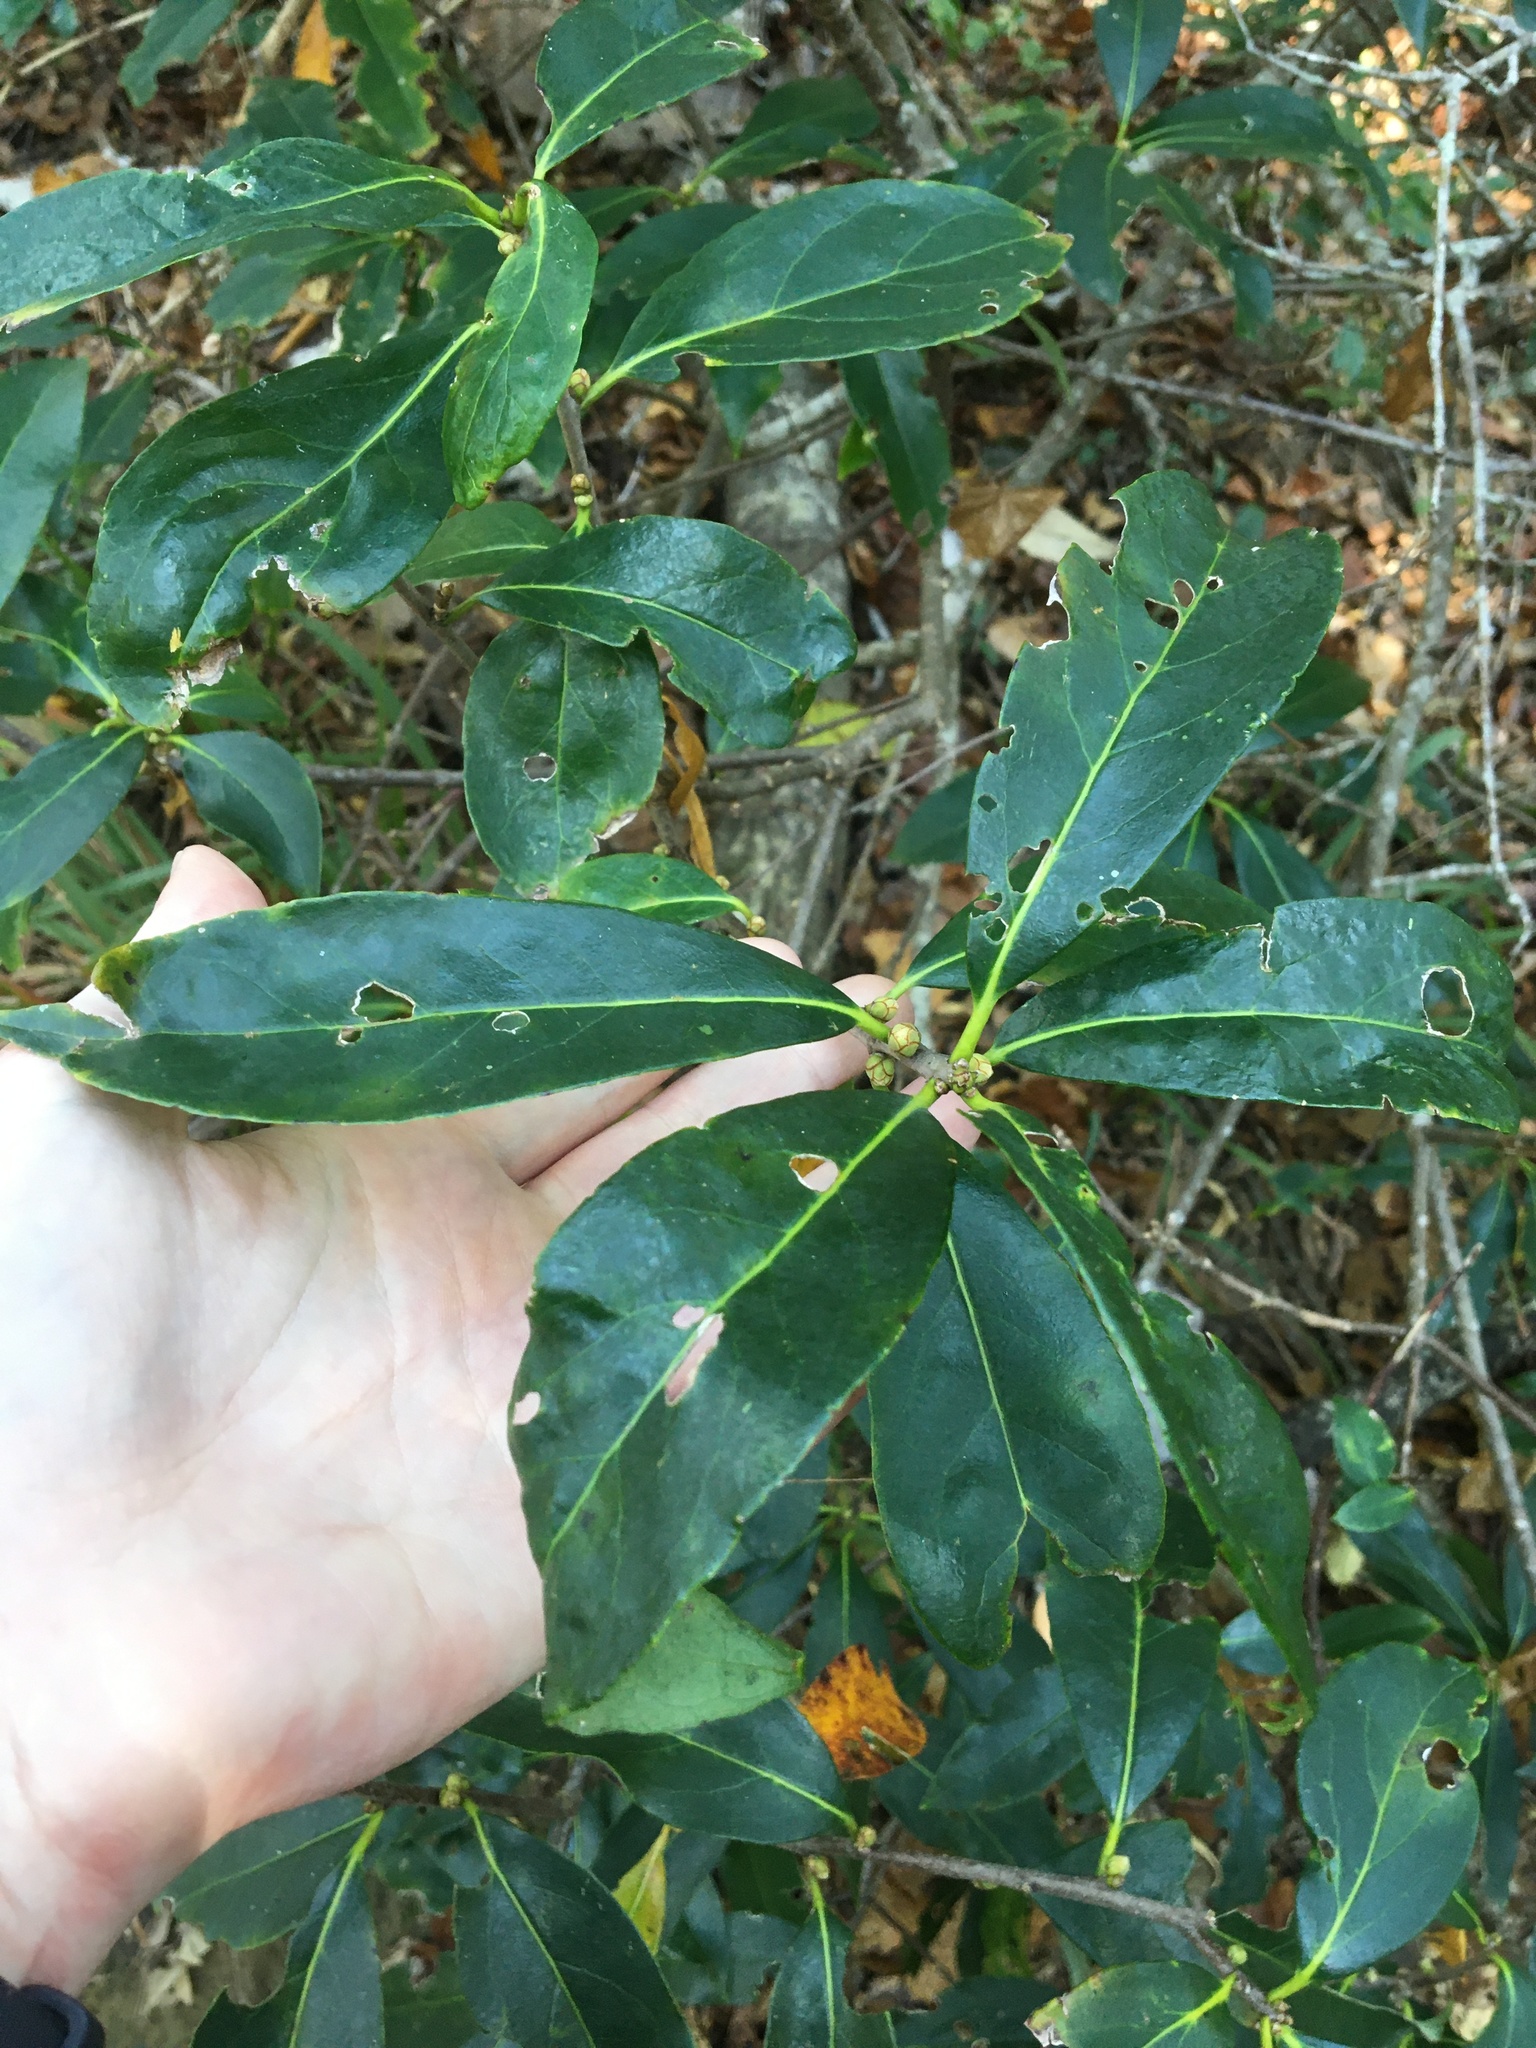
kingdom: Plantae
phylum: Tracheophyta
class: Magnoliopsida
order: Ericales
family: Symplocaceae
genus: Symplocos
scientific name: Symplocos tinctoria
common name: Horse-sugar
